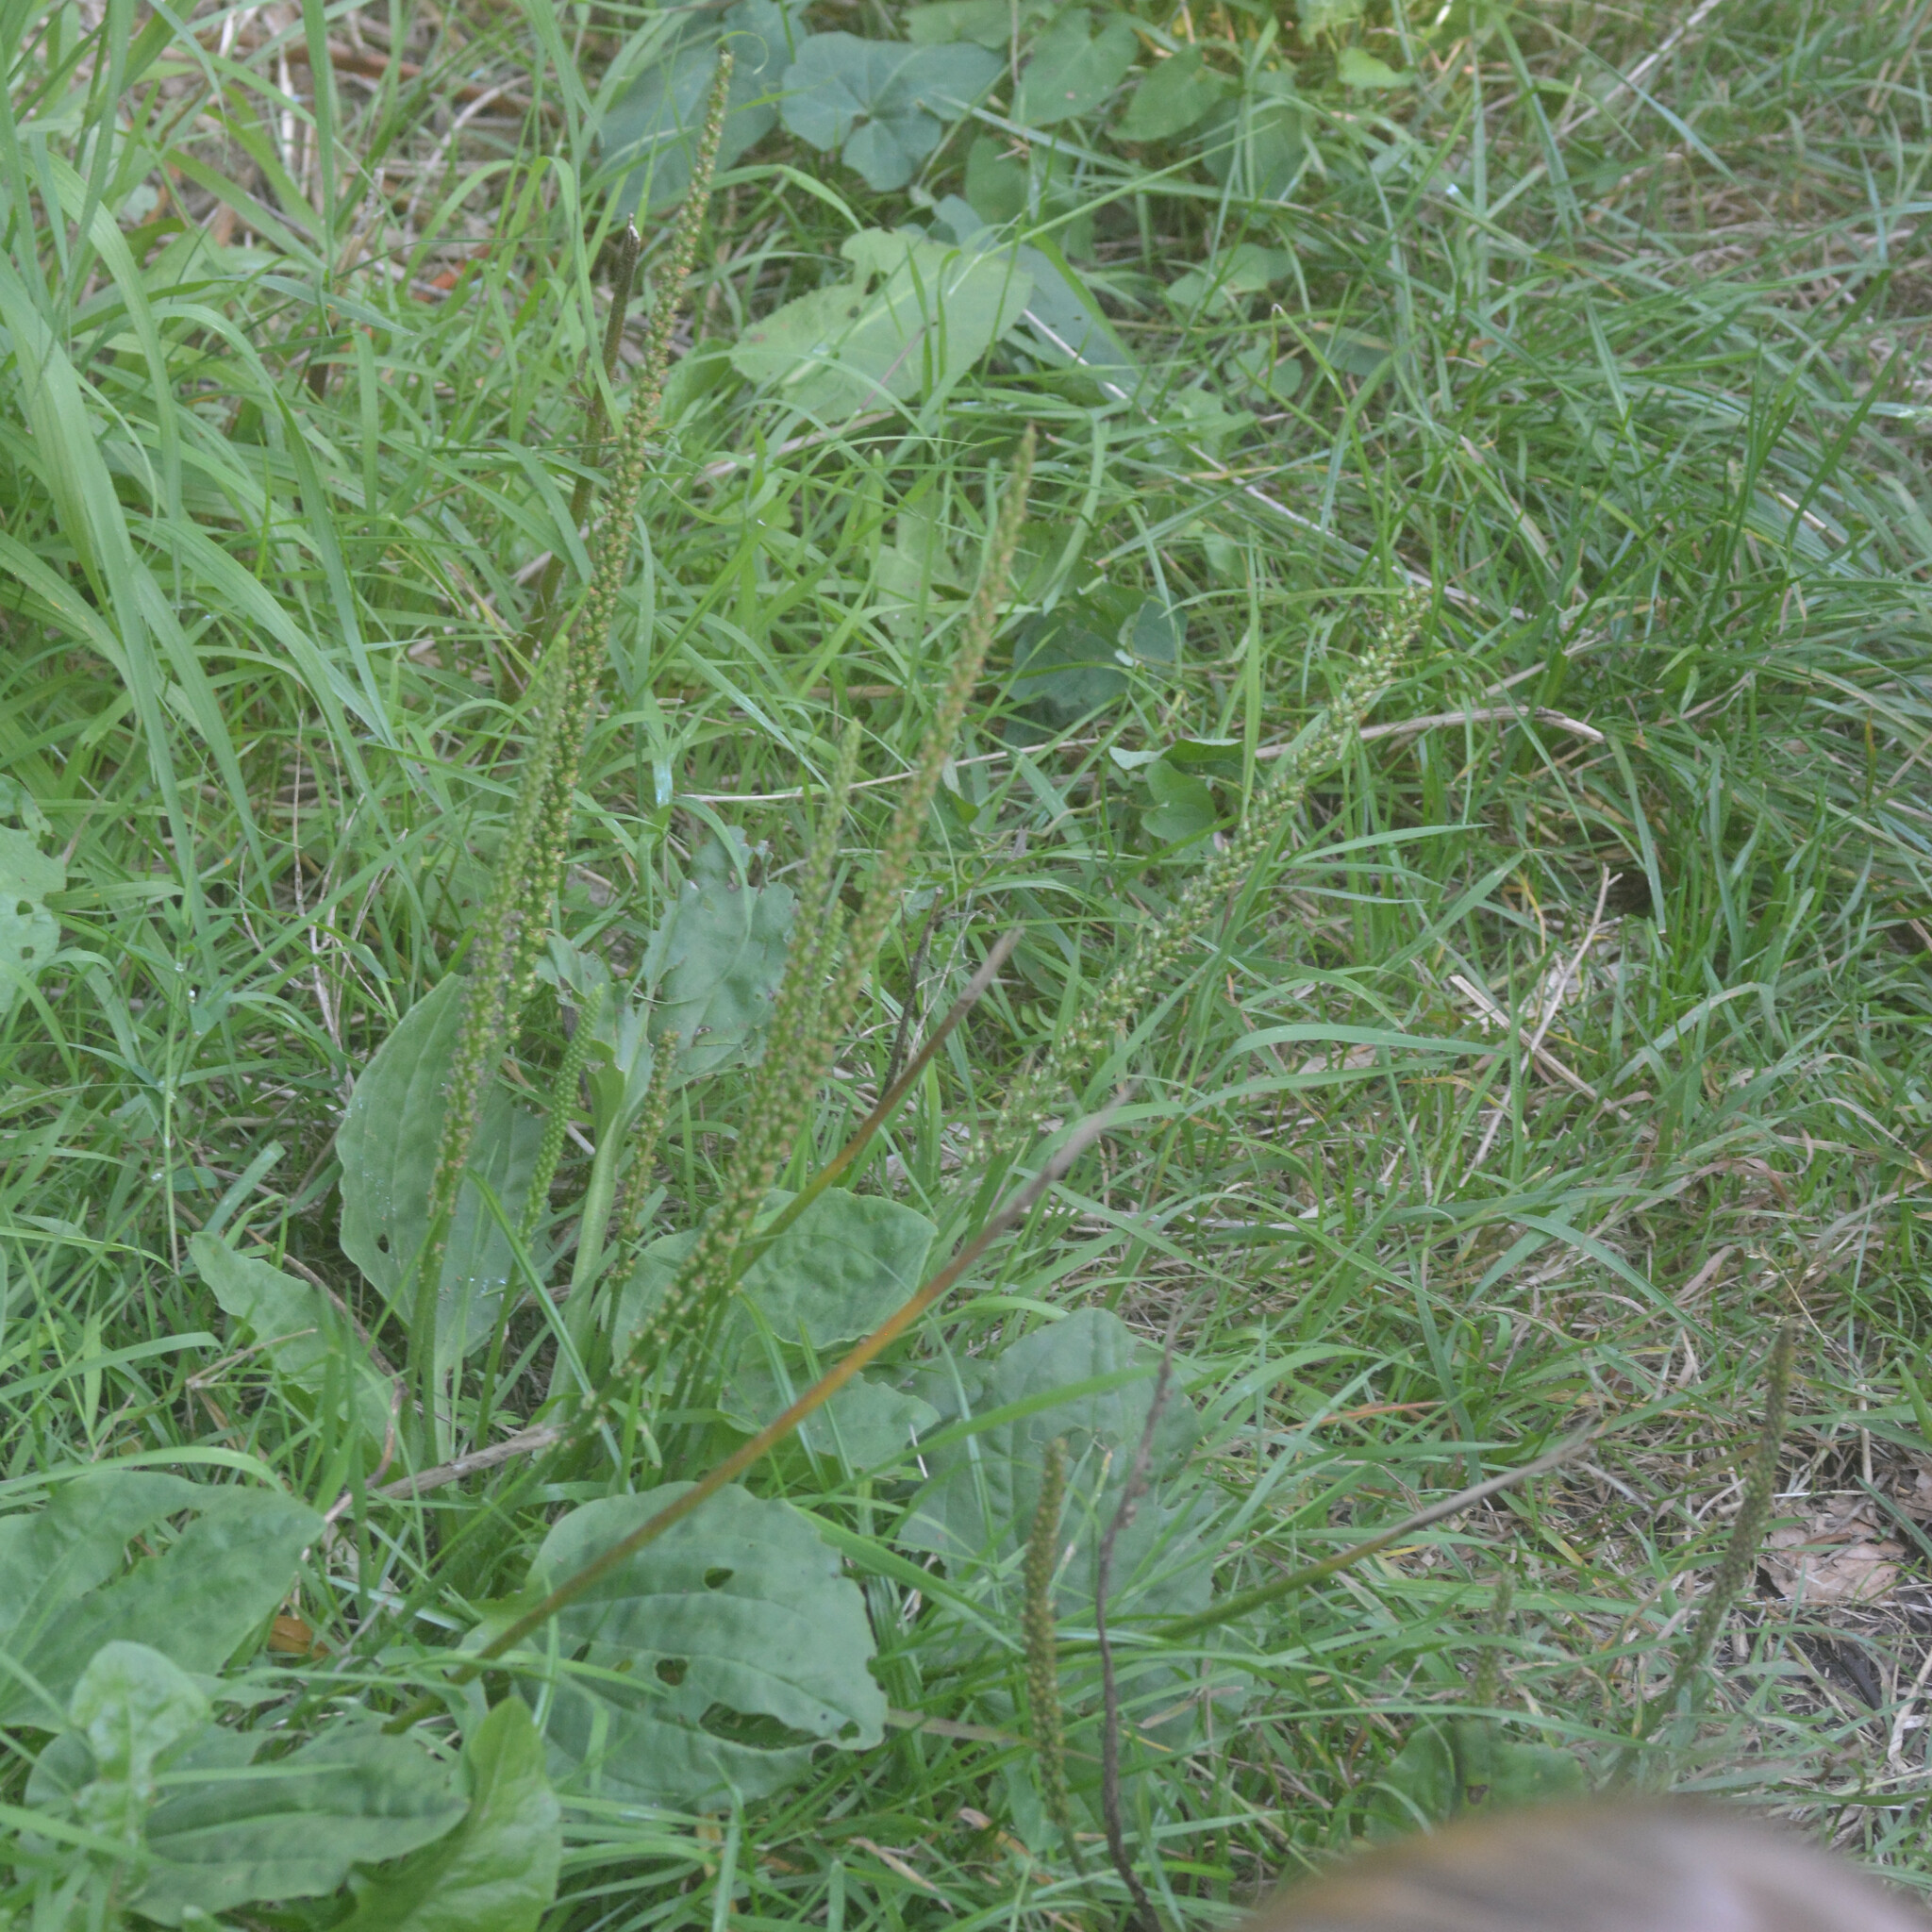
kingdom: Plantae
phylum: Tracheophyta
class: Magnoliopsida
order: Lamiales
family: Plantaginaceae
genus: Plantago
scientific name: Plantago major
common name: Common plantain
